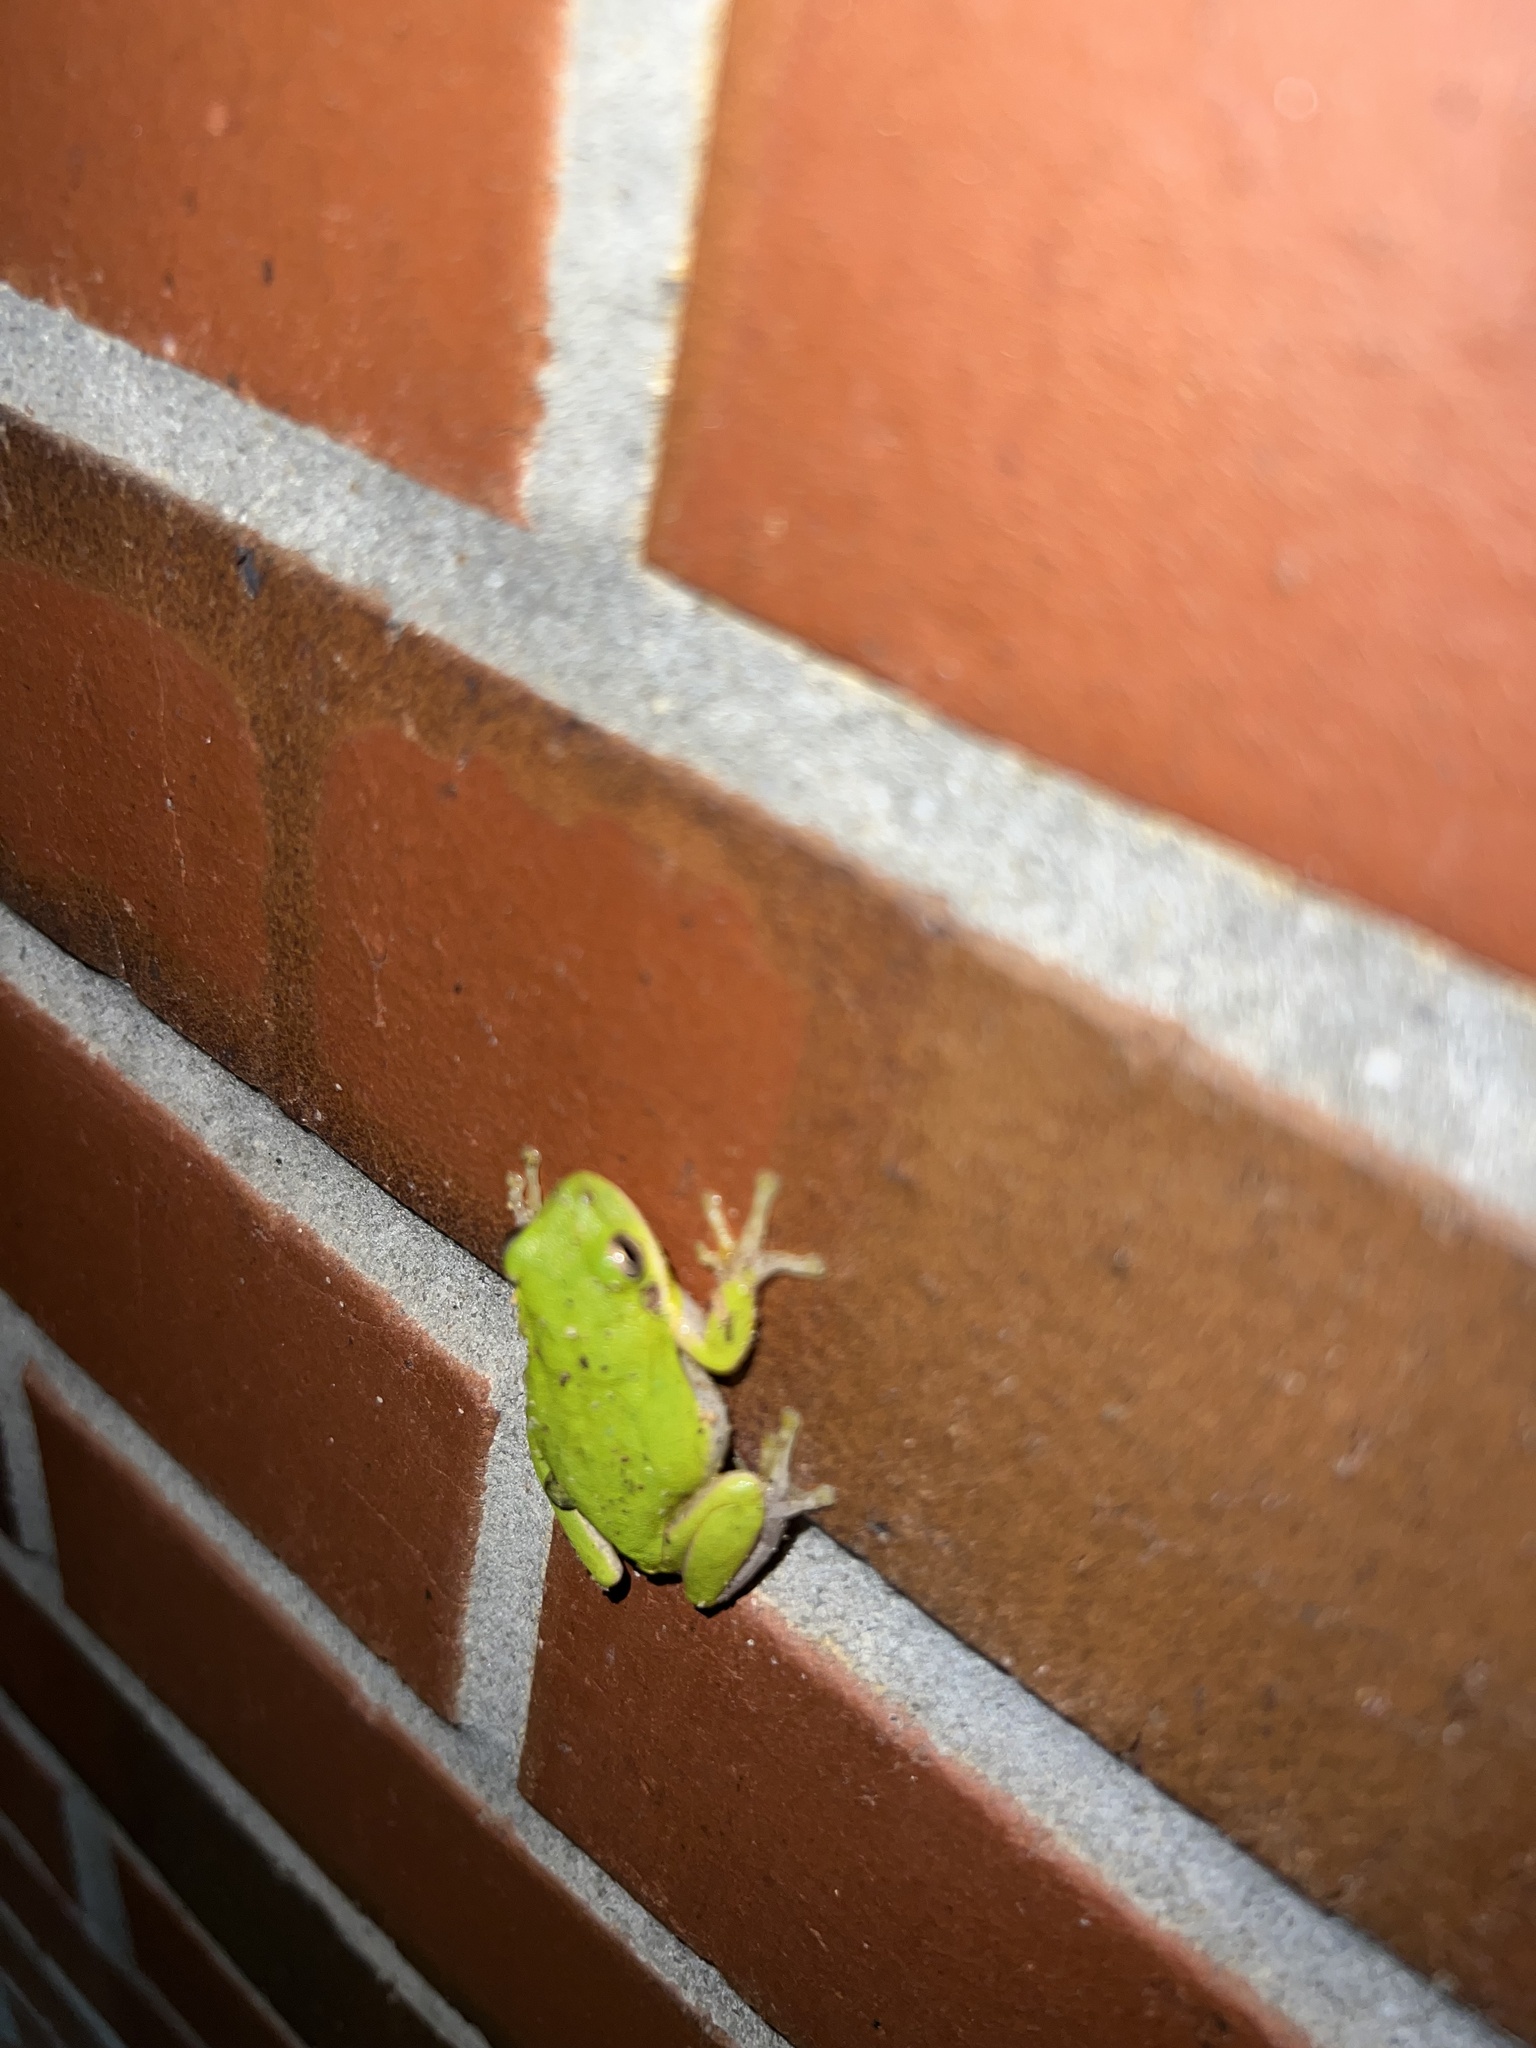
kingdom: Animalia
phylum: Chordata
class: Amphibia
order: Anura
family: Hylidae
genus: Dryophytes
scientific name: Dryophytes squirellus
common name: Squirrel treefrog
